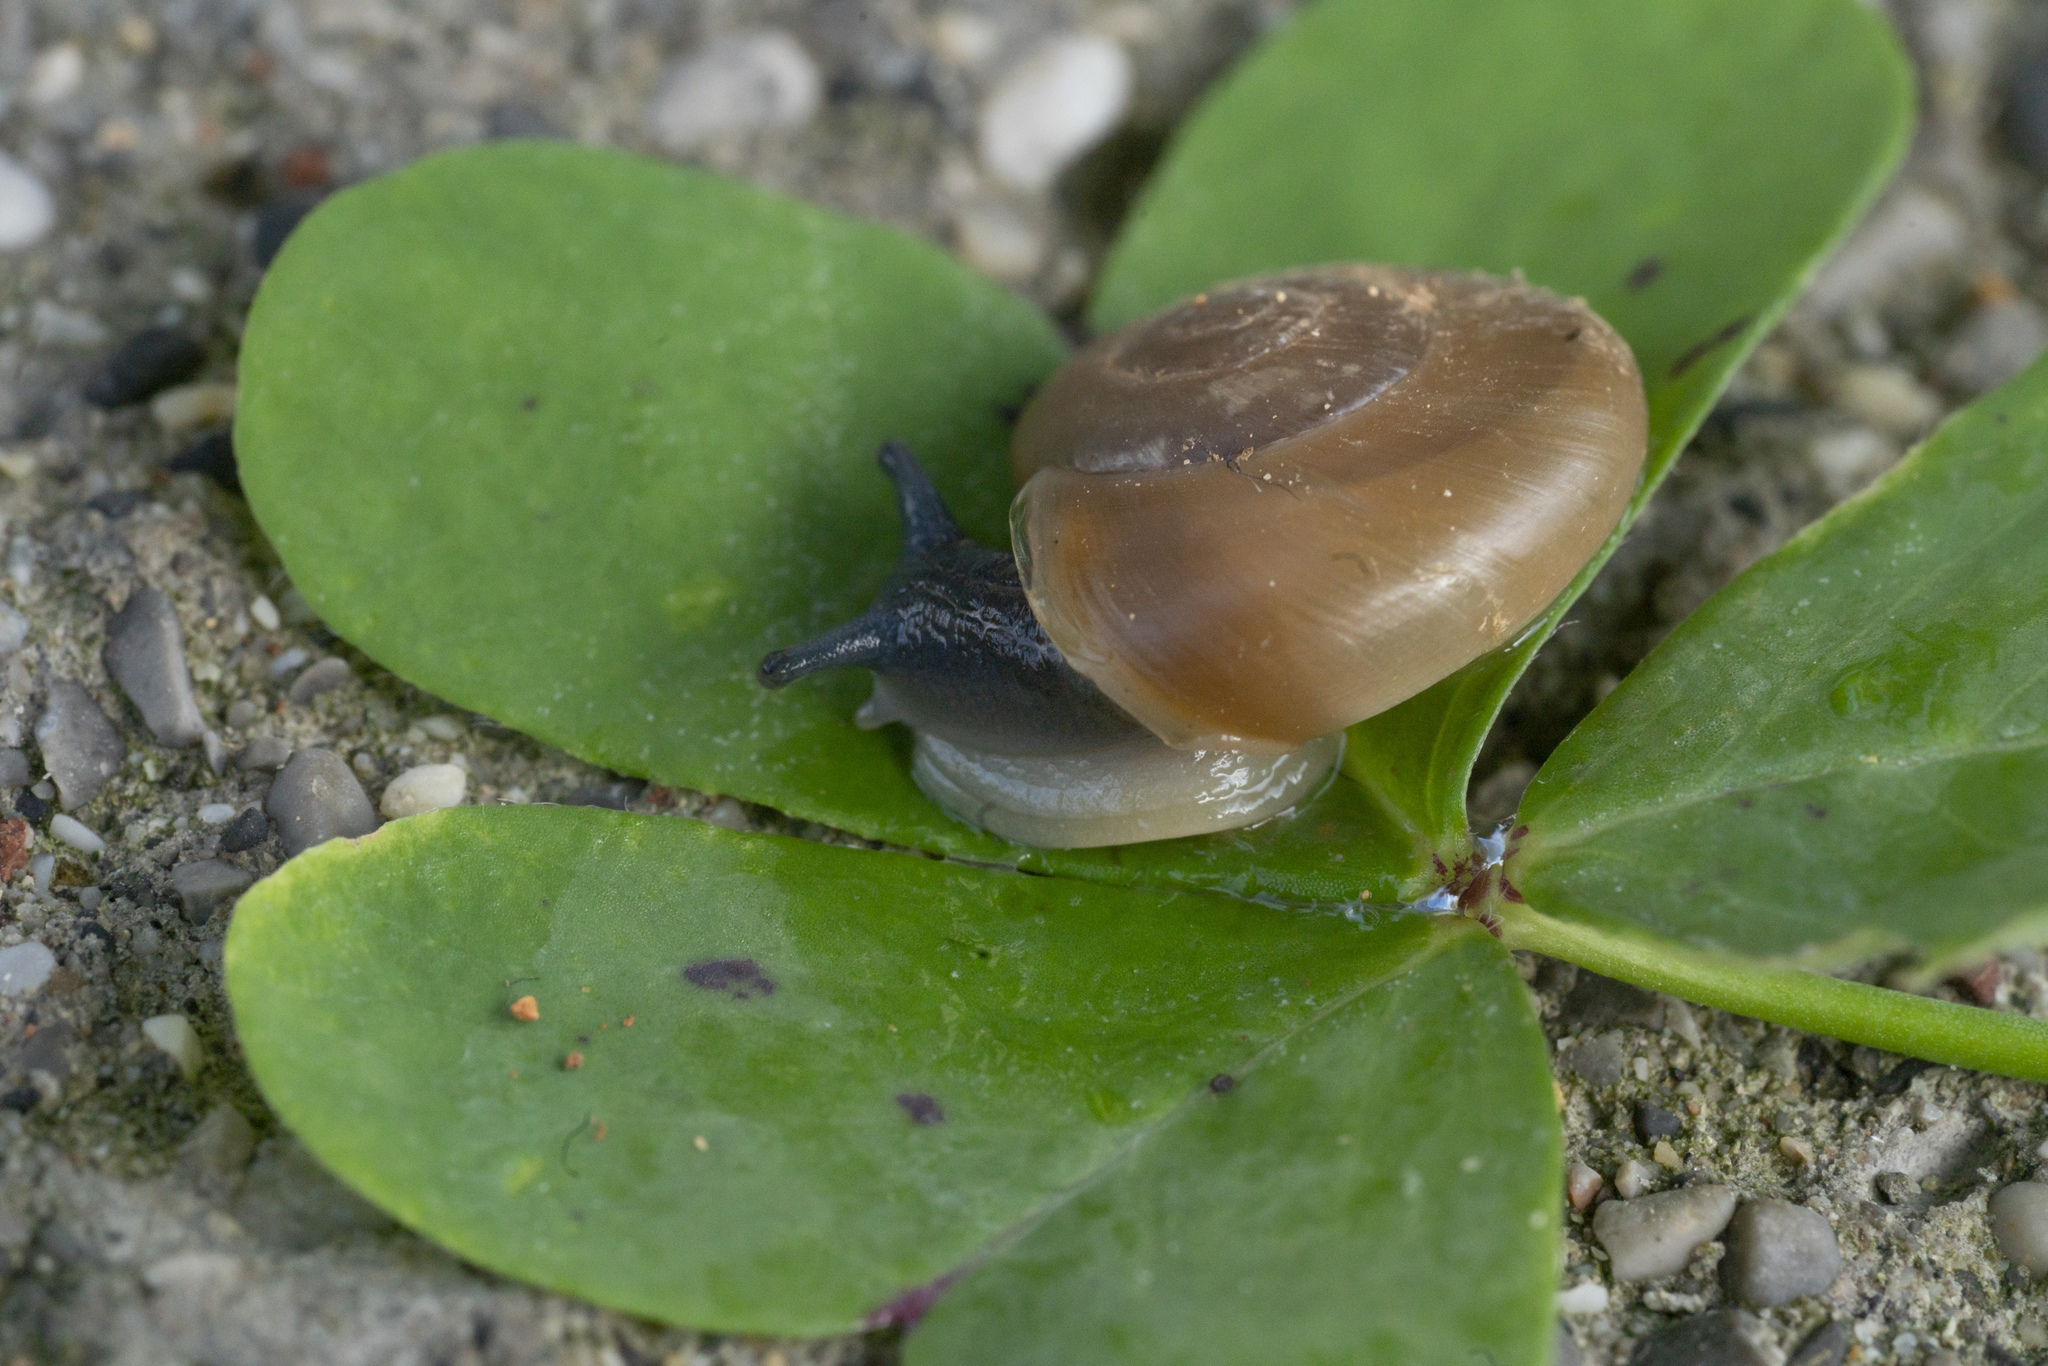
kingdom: Animalia
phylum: Mollusca
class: Gastropoda
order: Stylommatophora
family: Oxychilidae
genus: Eopolita
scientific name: Eopolita protensa
